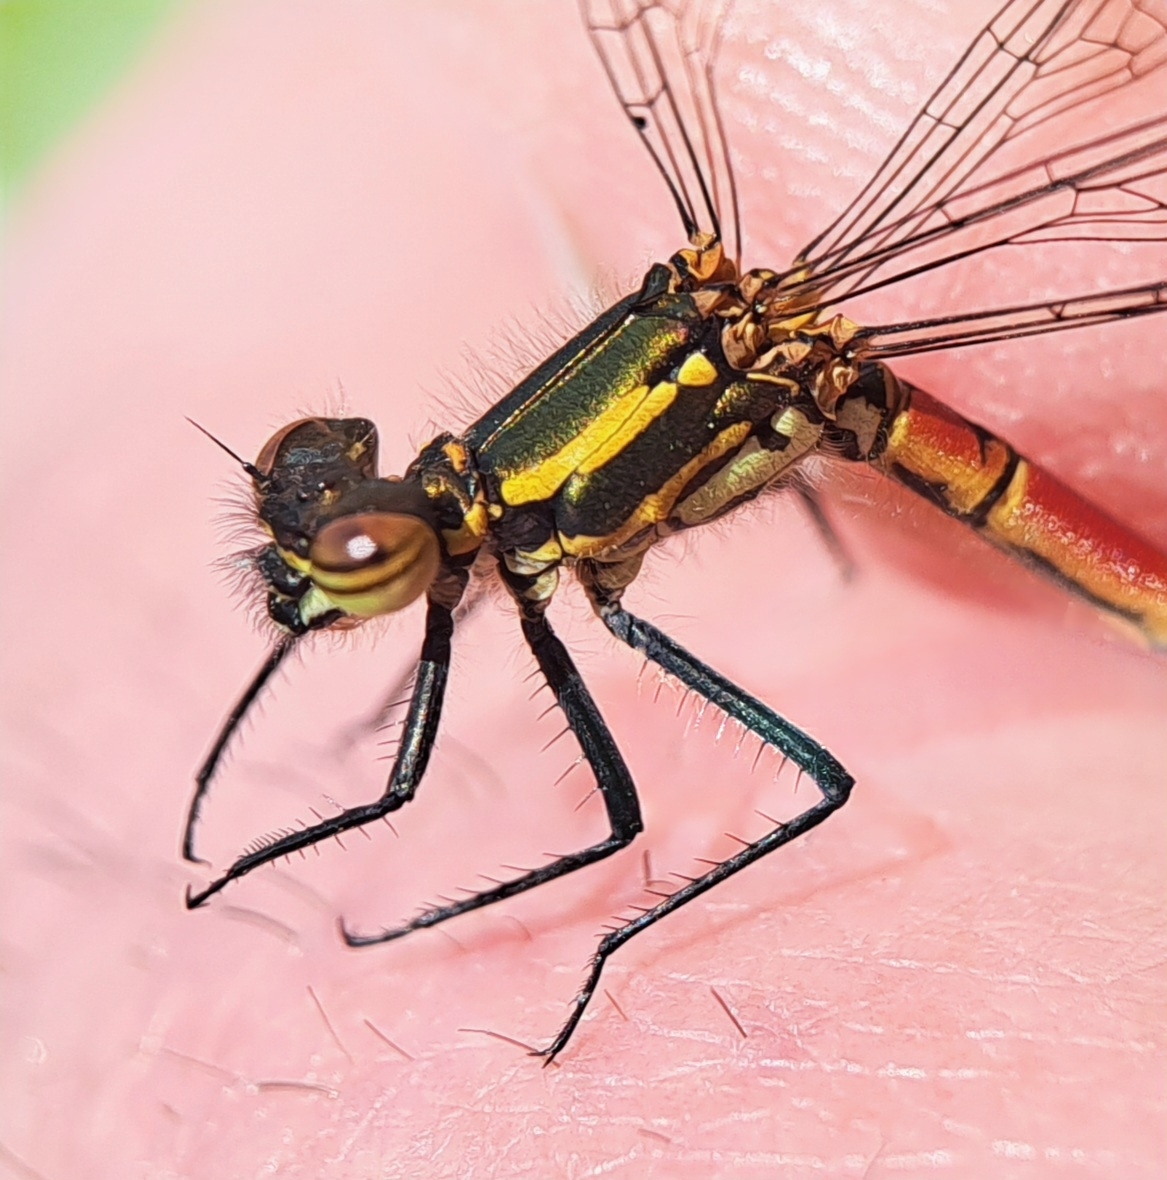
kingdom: Animalia
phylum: Arthropoda
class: Insecta
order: Odonata
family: Coenagrionidae
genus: Pyrrhosoma
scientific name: Pyrrhosoma nymphula
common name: Large red damsel
